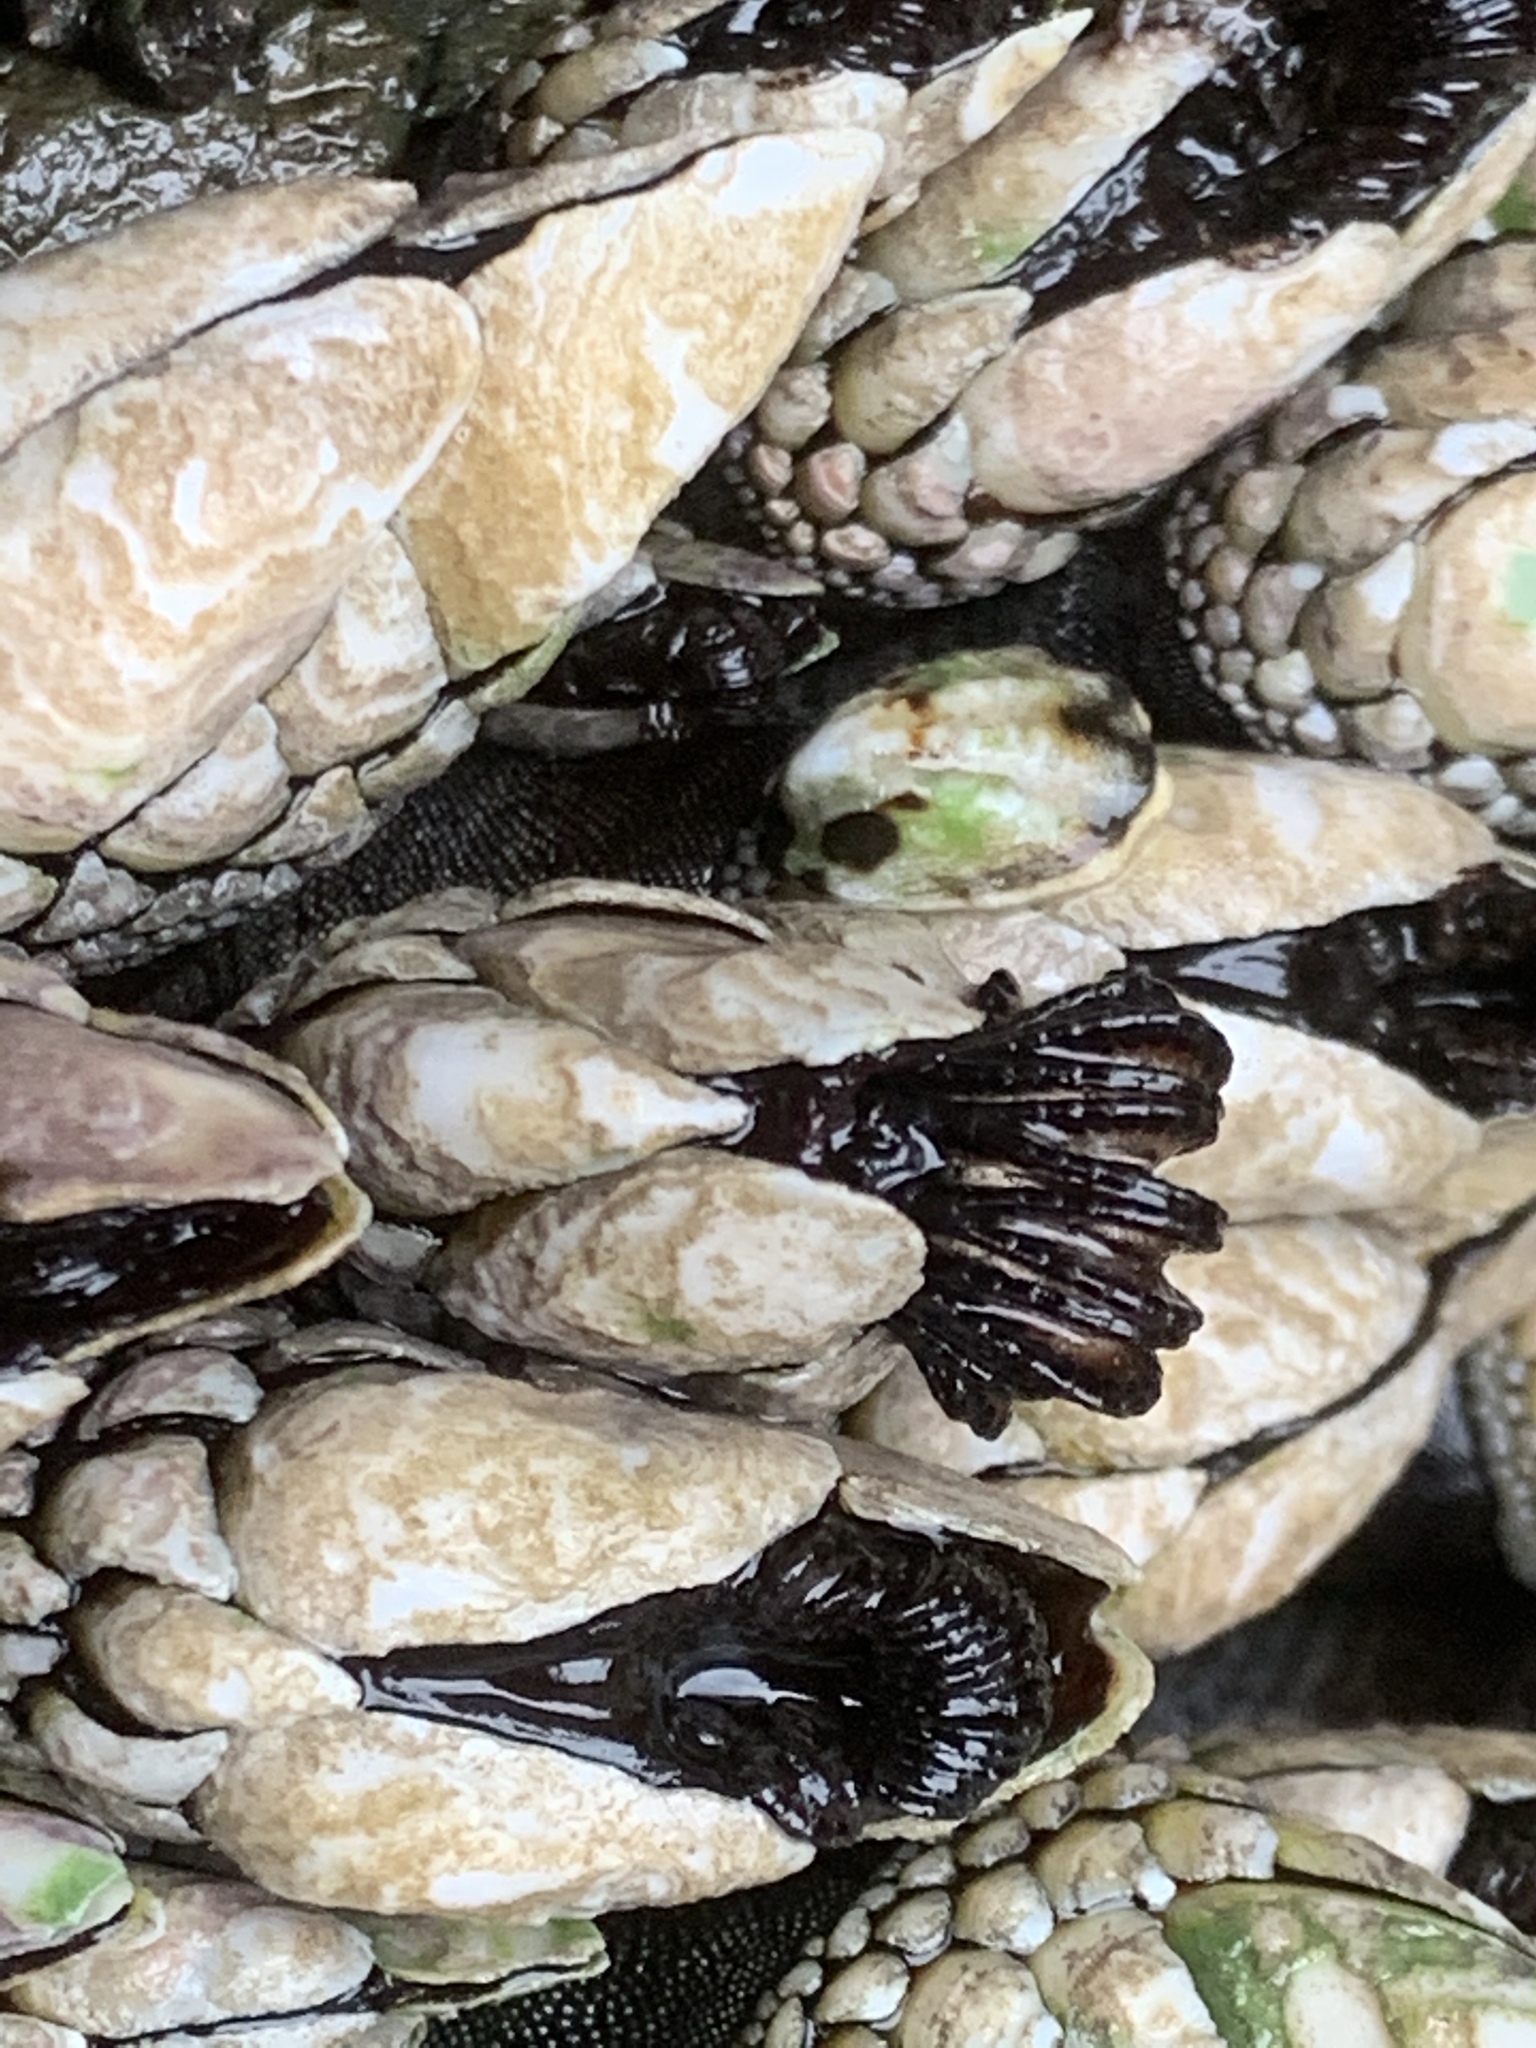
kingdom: Animalia
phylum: Arthropoda
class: Maxillopoda
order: Pedunculata
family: Pollicipedidae
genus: Pollicipes
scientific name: Pollicipes polymerus
